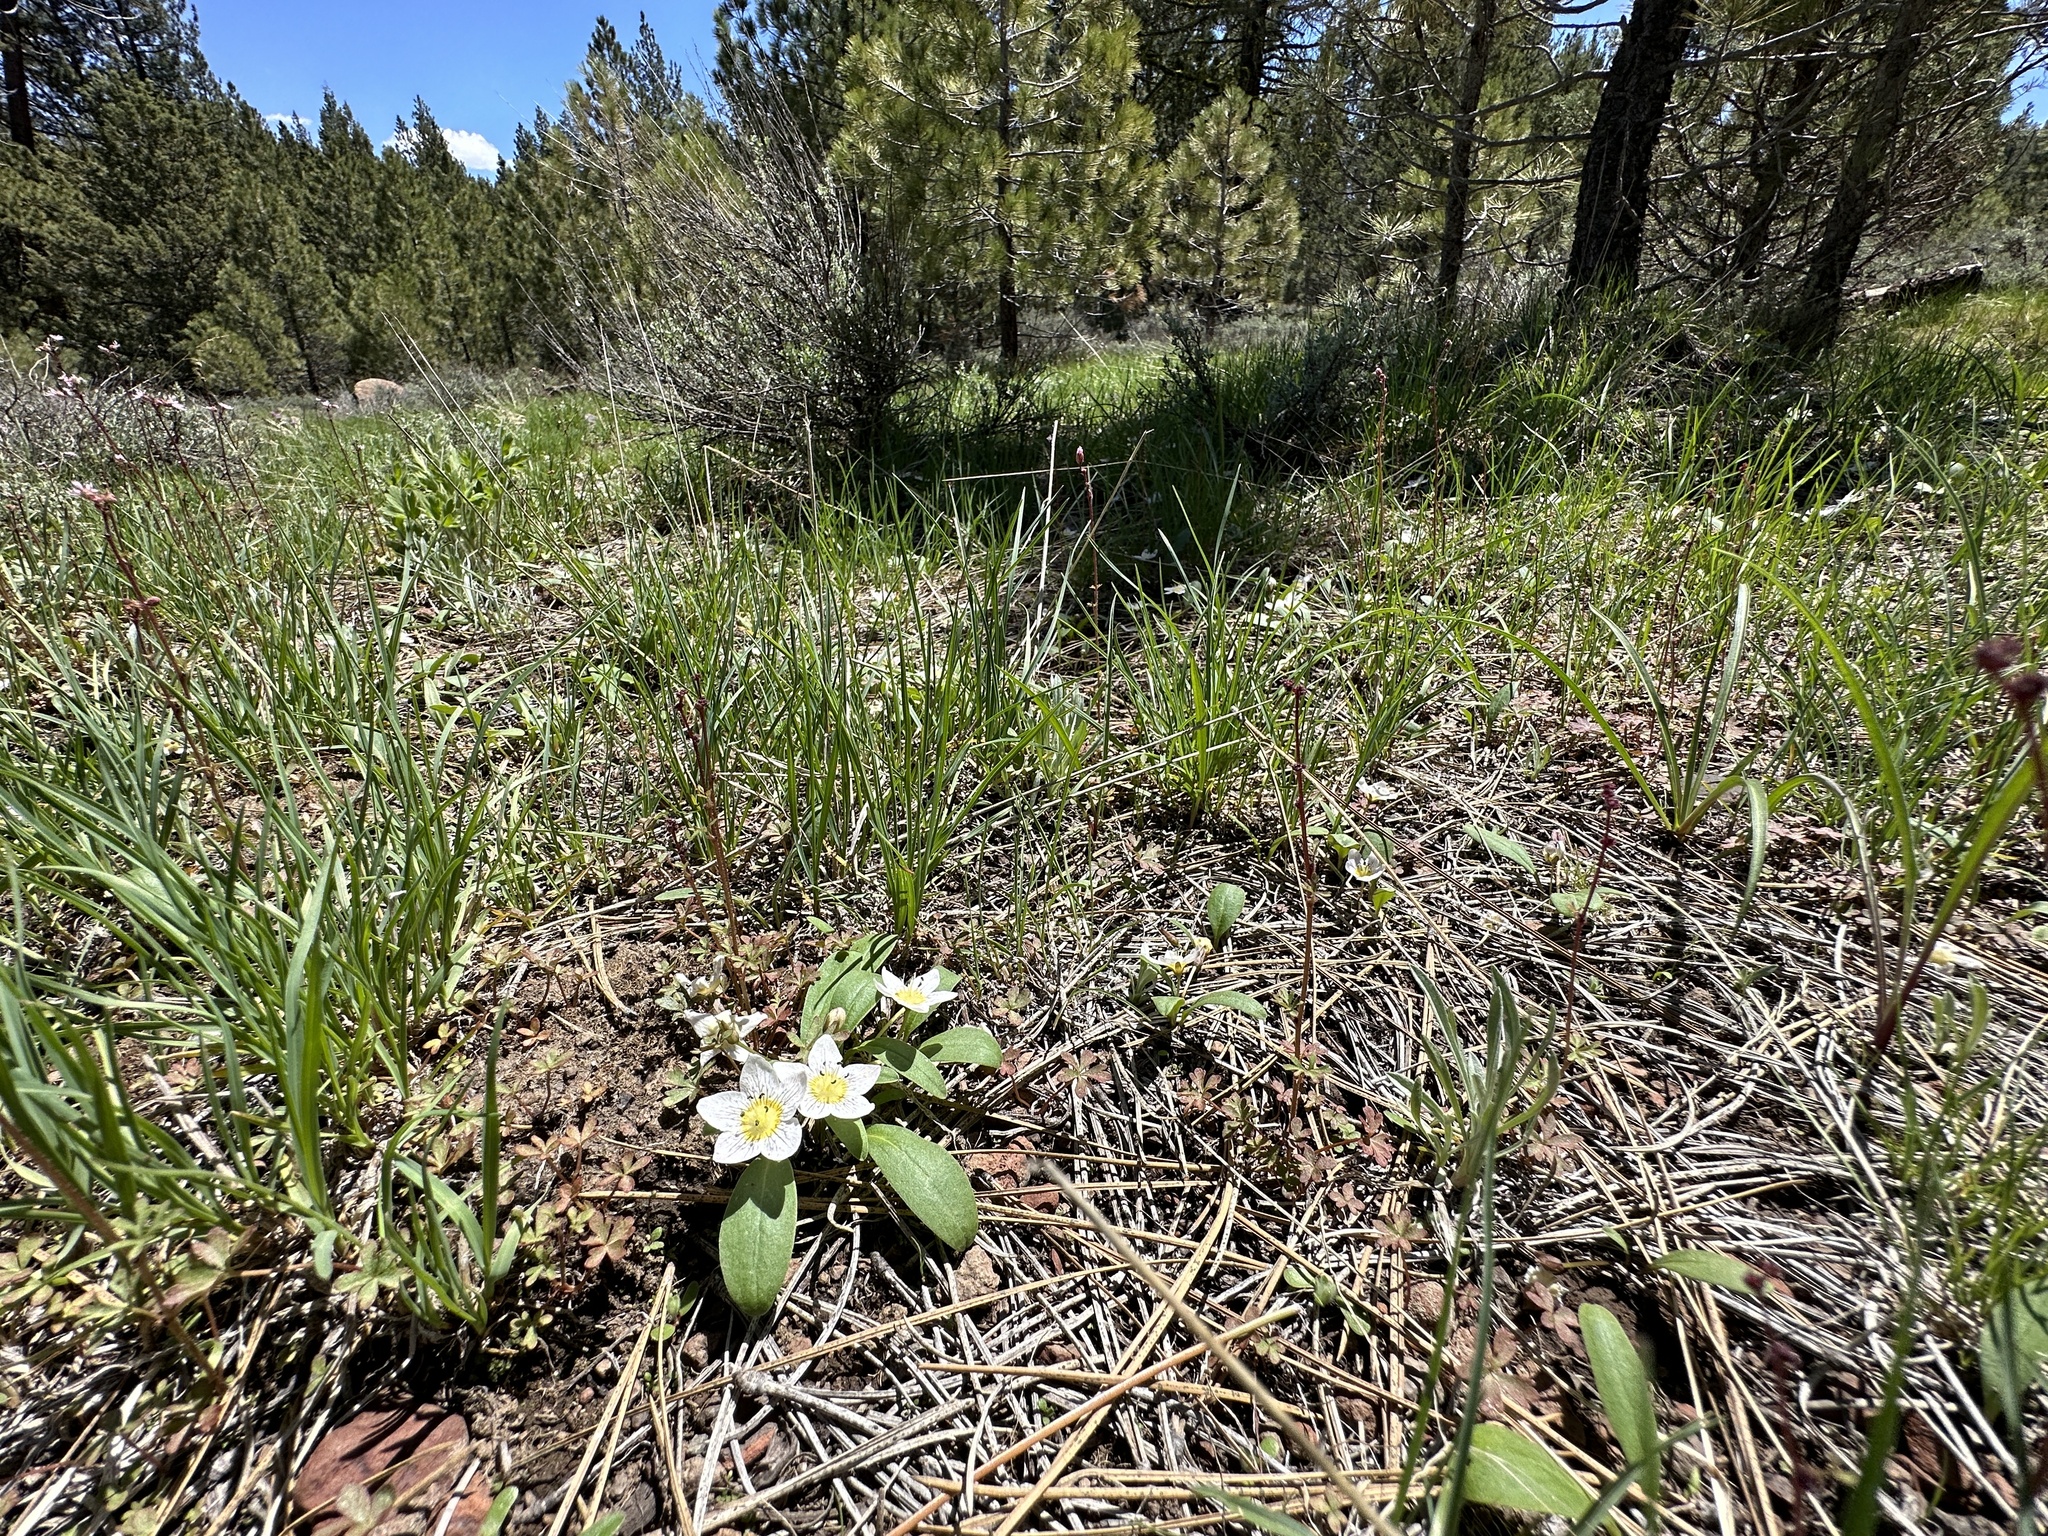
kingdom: Plantae
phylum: Tracheophyta
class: Magnoliopsida
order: Boraginales
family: Hydrophyllaceae
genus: Hesperochiron
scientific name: Hesperochiron pumilus
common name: Dwarf hesperochiron
